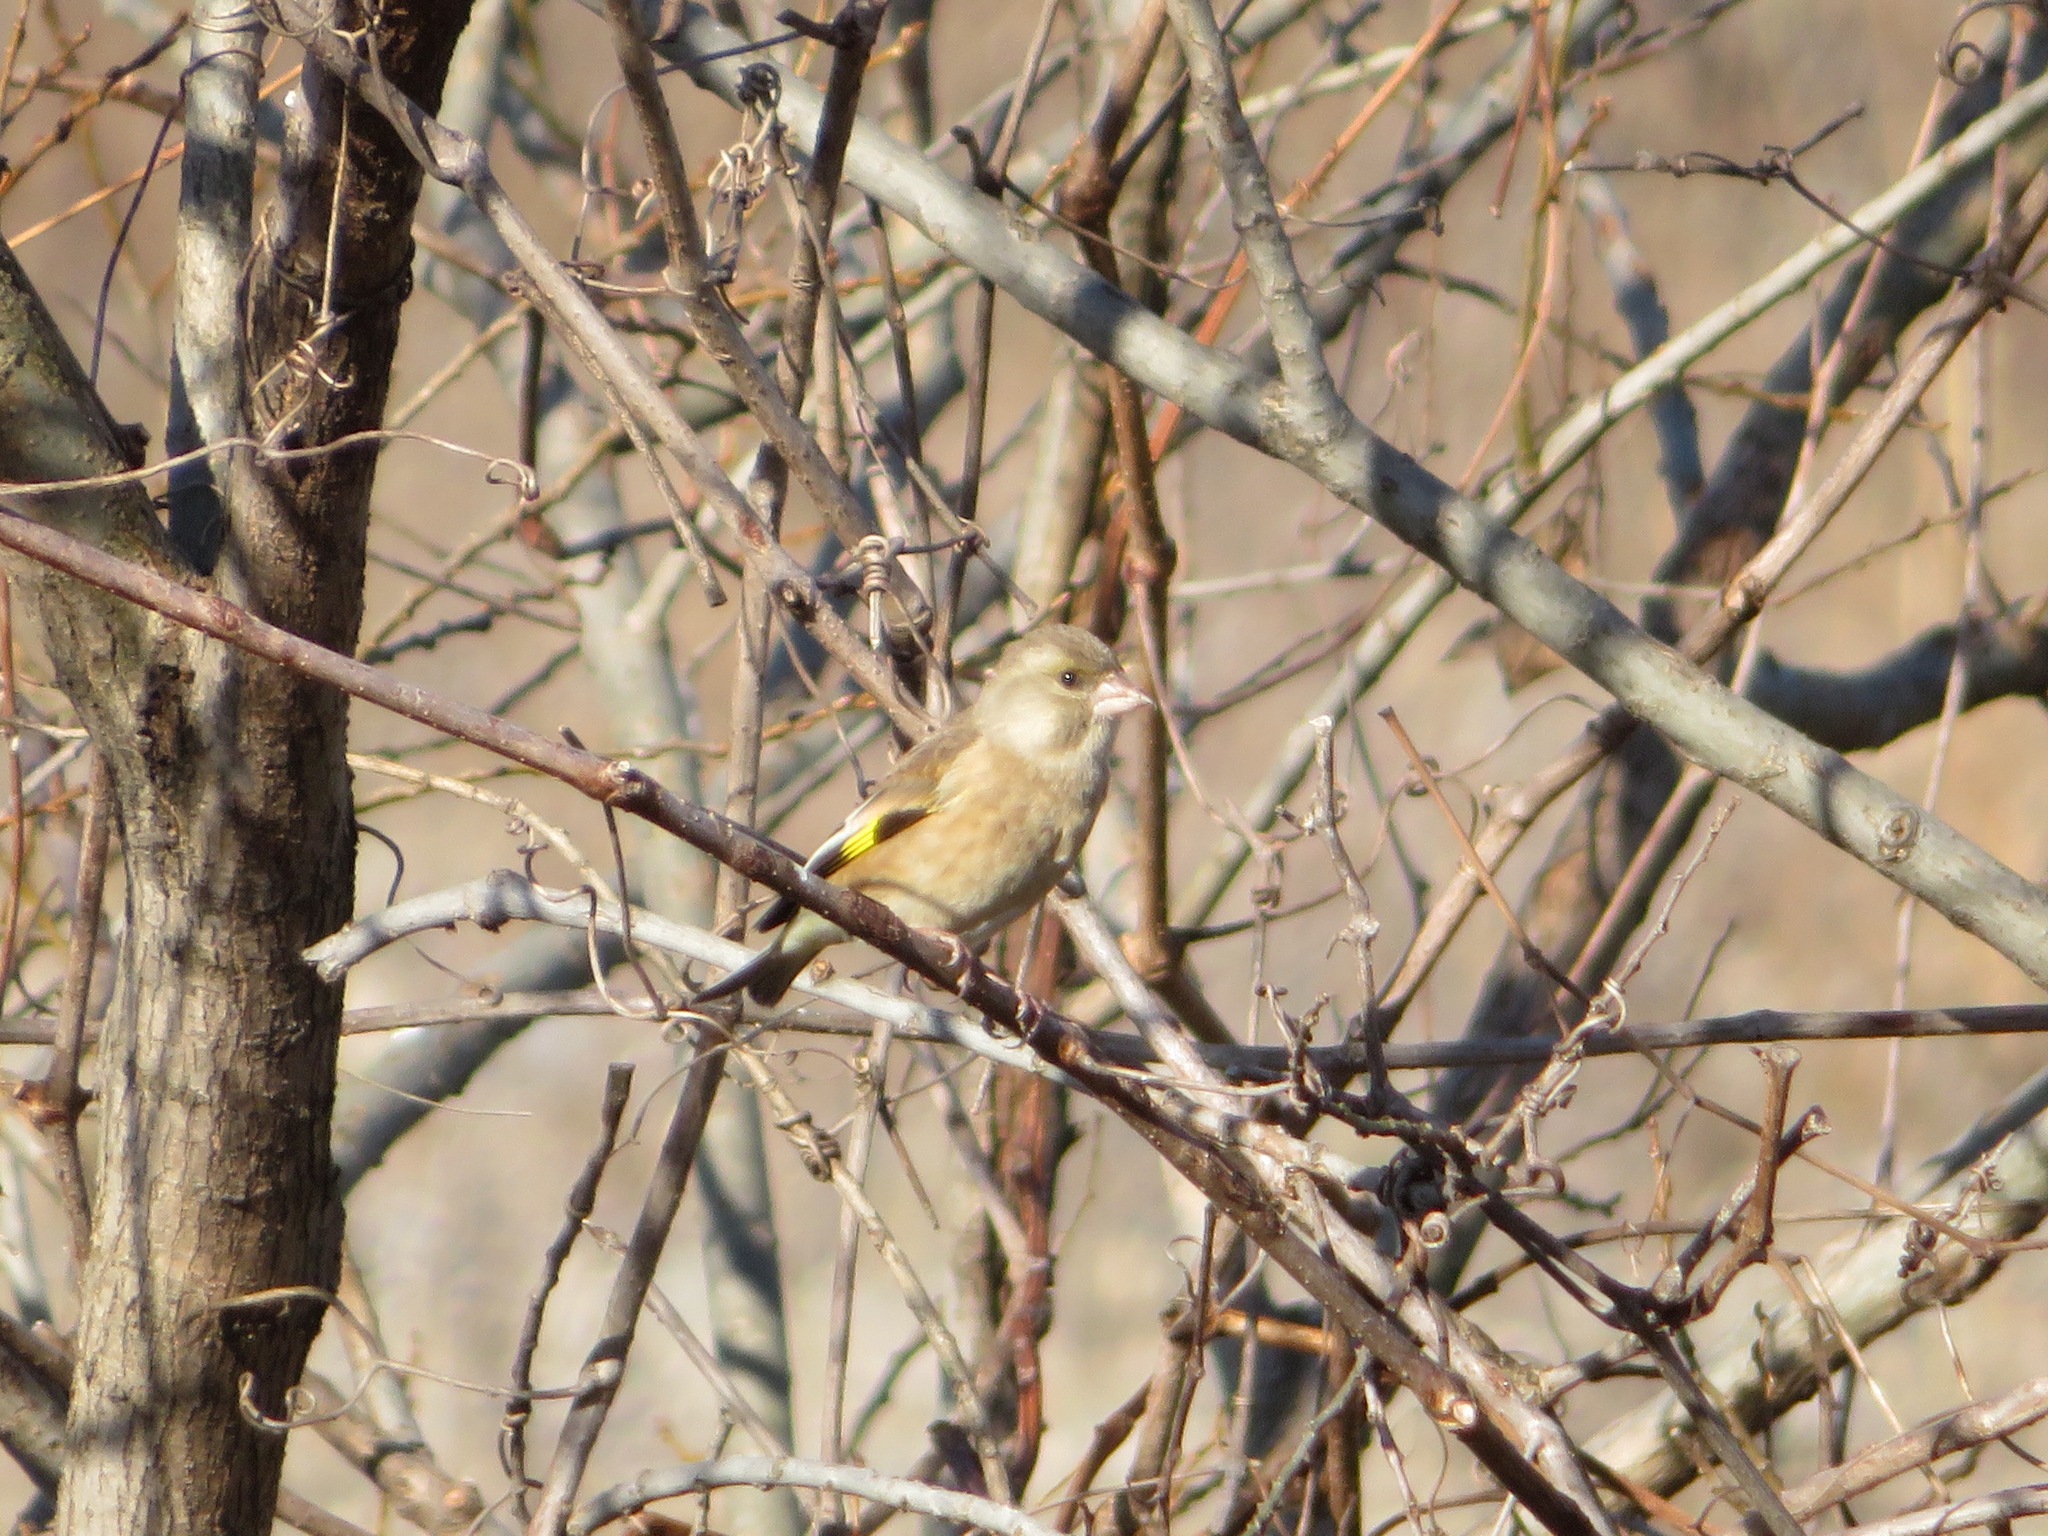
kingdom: Plantae
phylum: Tracheophyta
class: Liliopsida
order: Poales
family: Poaceae
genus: Chloris
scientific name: Chloris sinica
